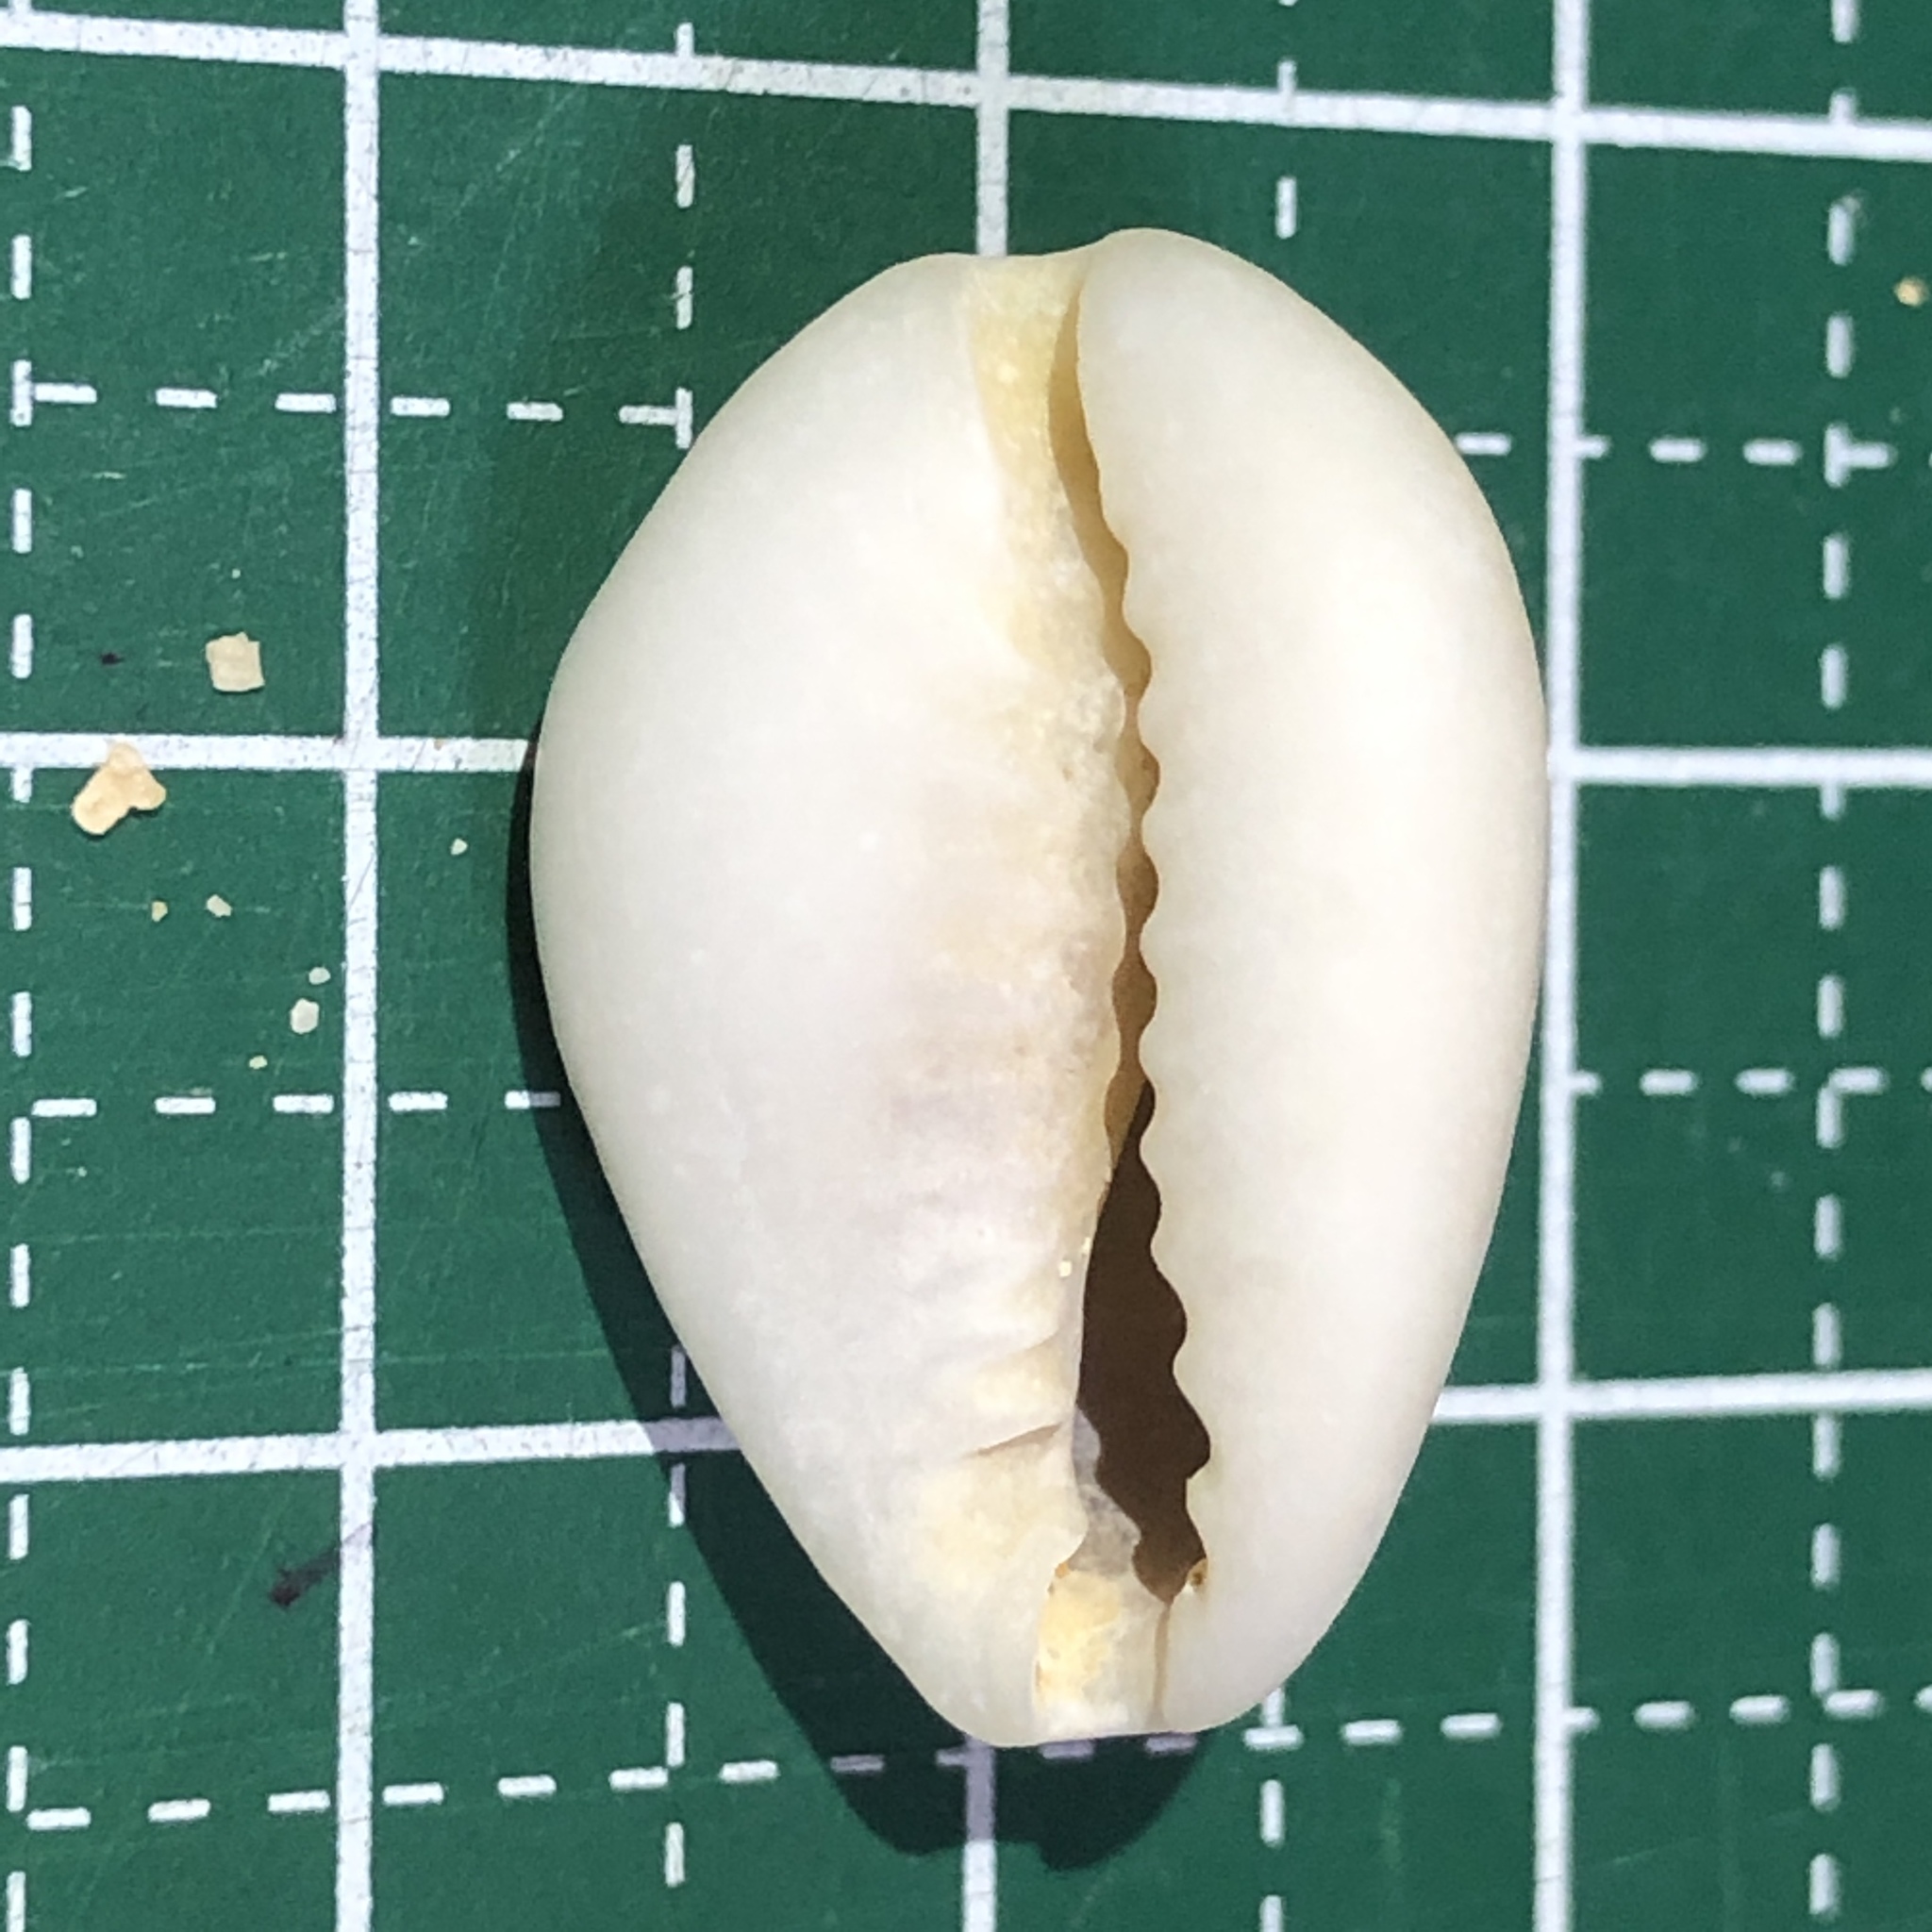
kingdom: Animalia
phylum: Mollusca
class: Gastropoda
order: Littorinimorpha
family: Cypraeidae
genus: Monetaria
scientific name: Monetaria annulus
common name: Ring cowrie
